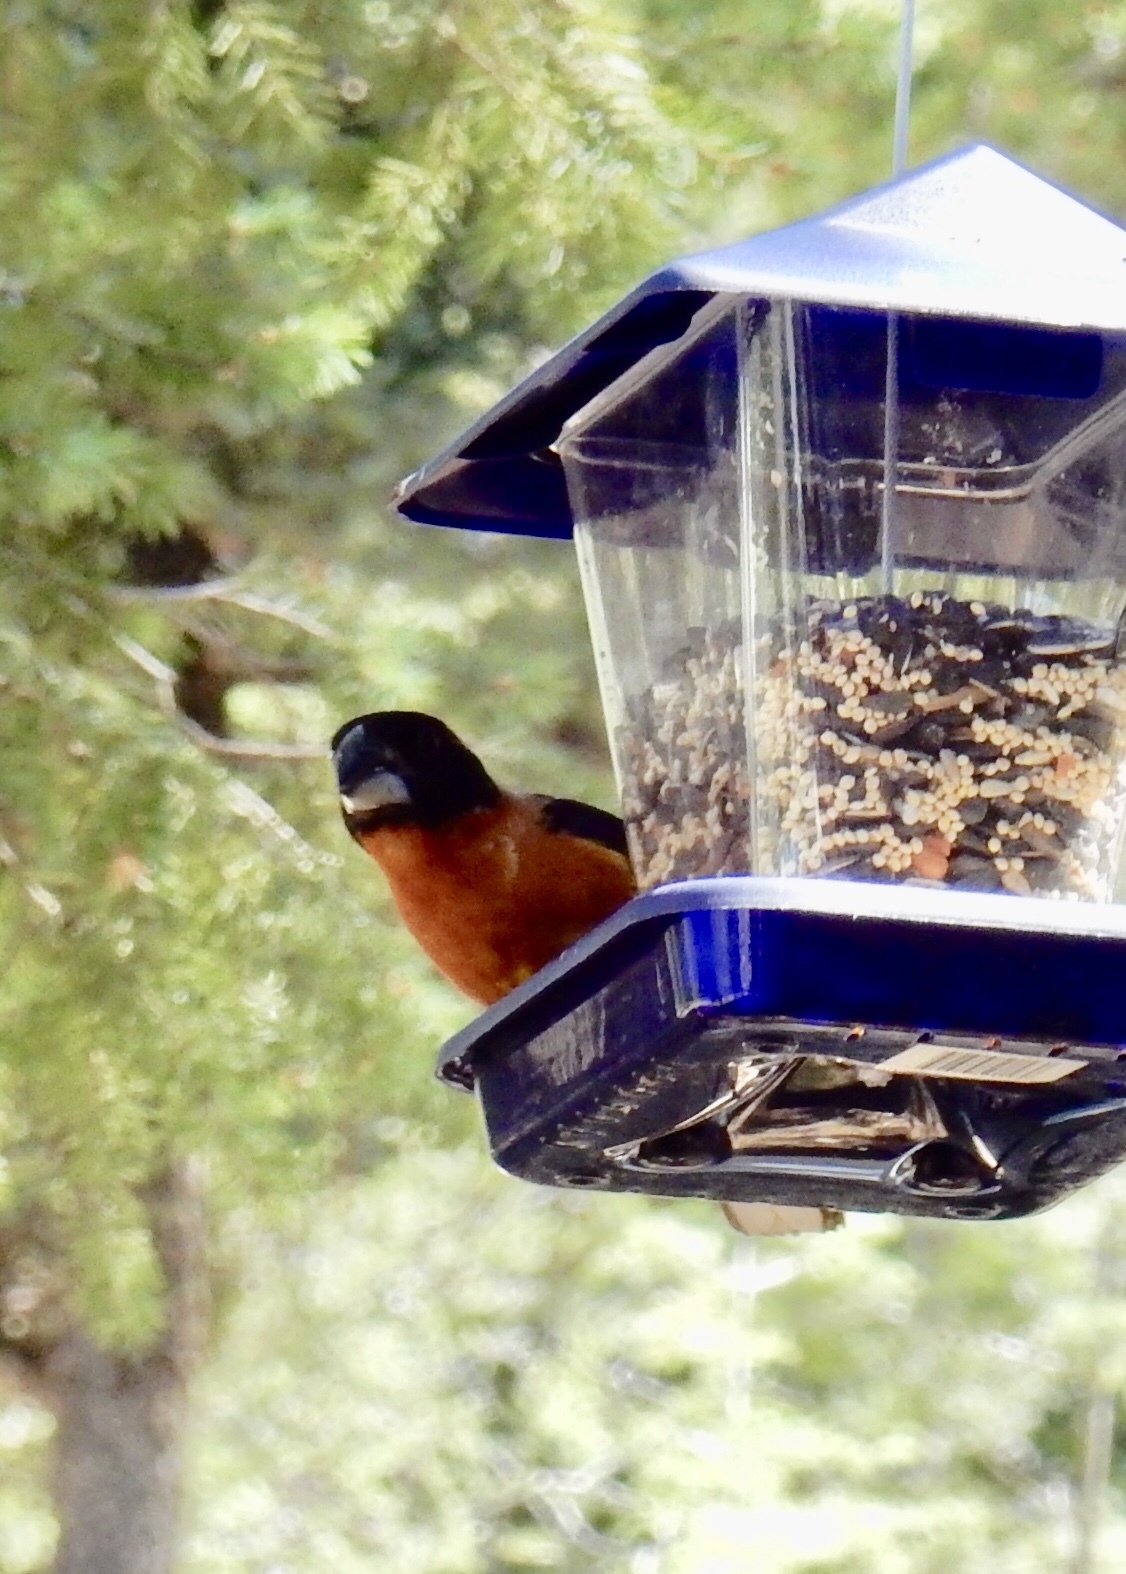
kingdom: Animalia
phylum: Chordata
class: Aves
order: Passeriformes
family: Cardinalidae
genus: Pheucticus
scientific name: Pheucticus melanocephalus
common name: Black-headed grosbeak
